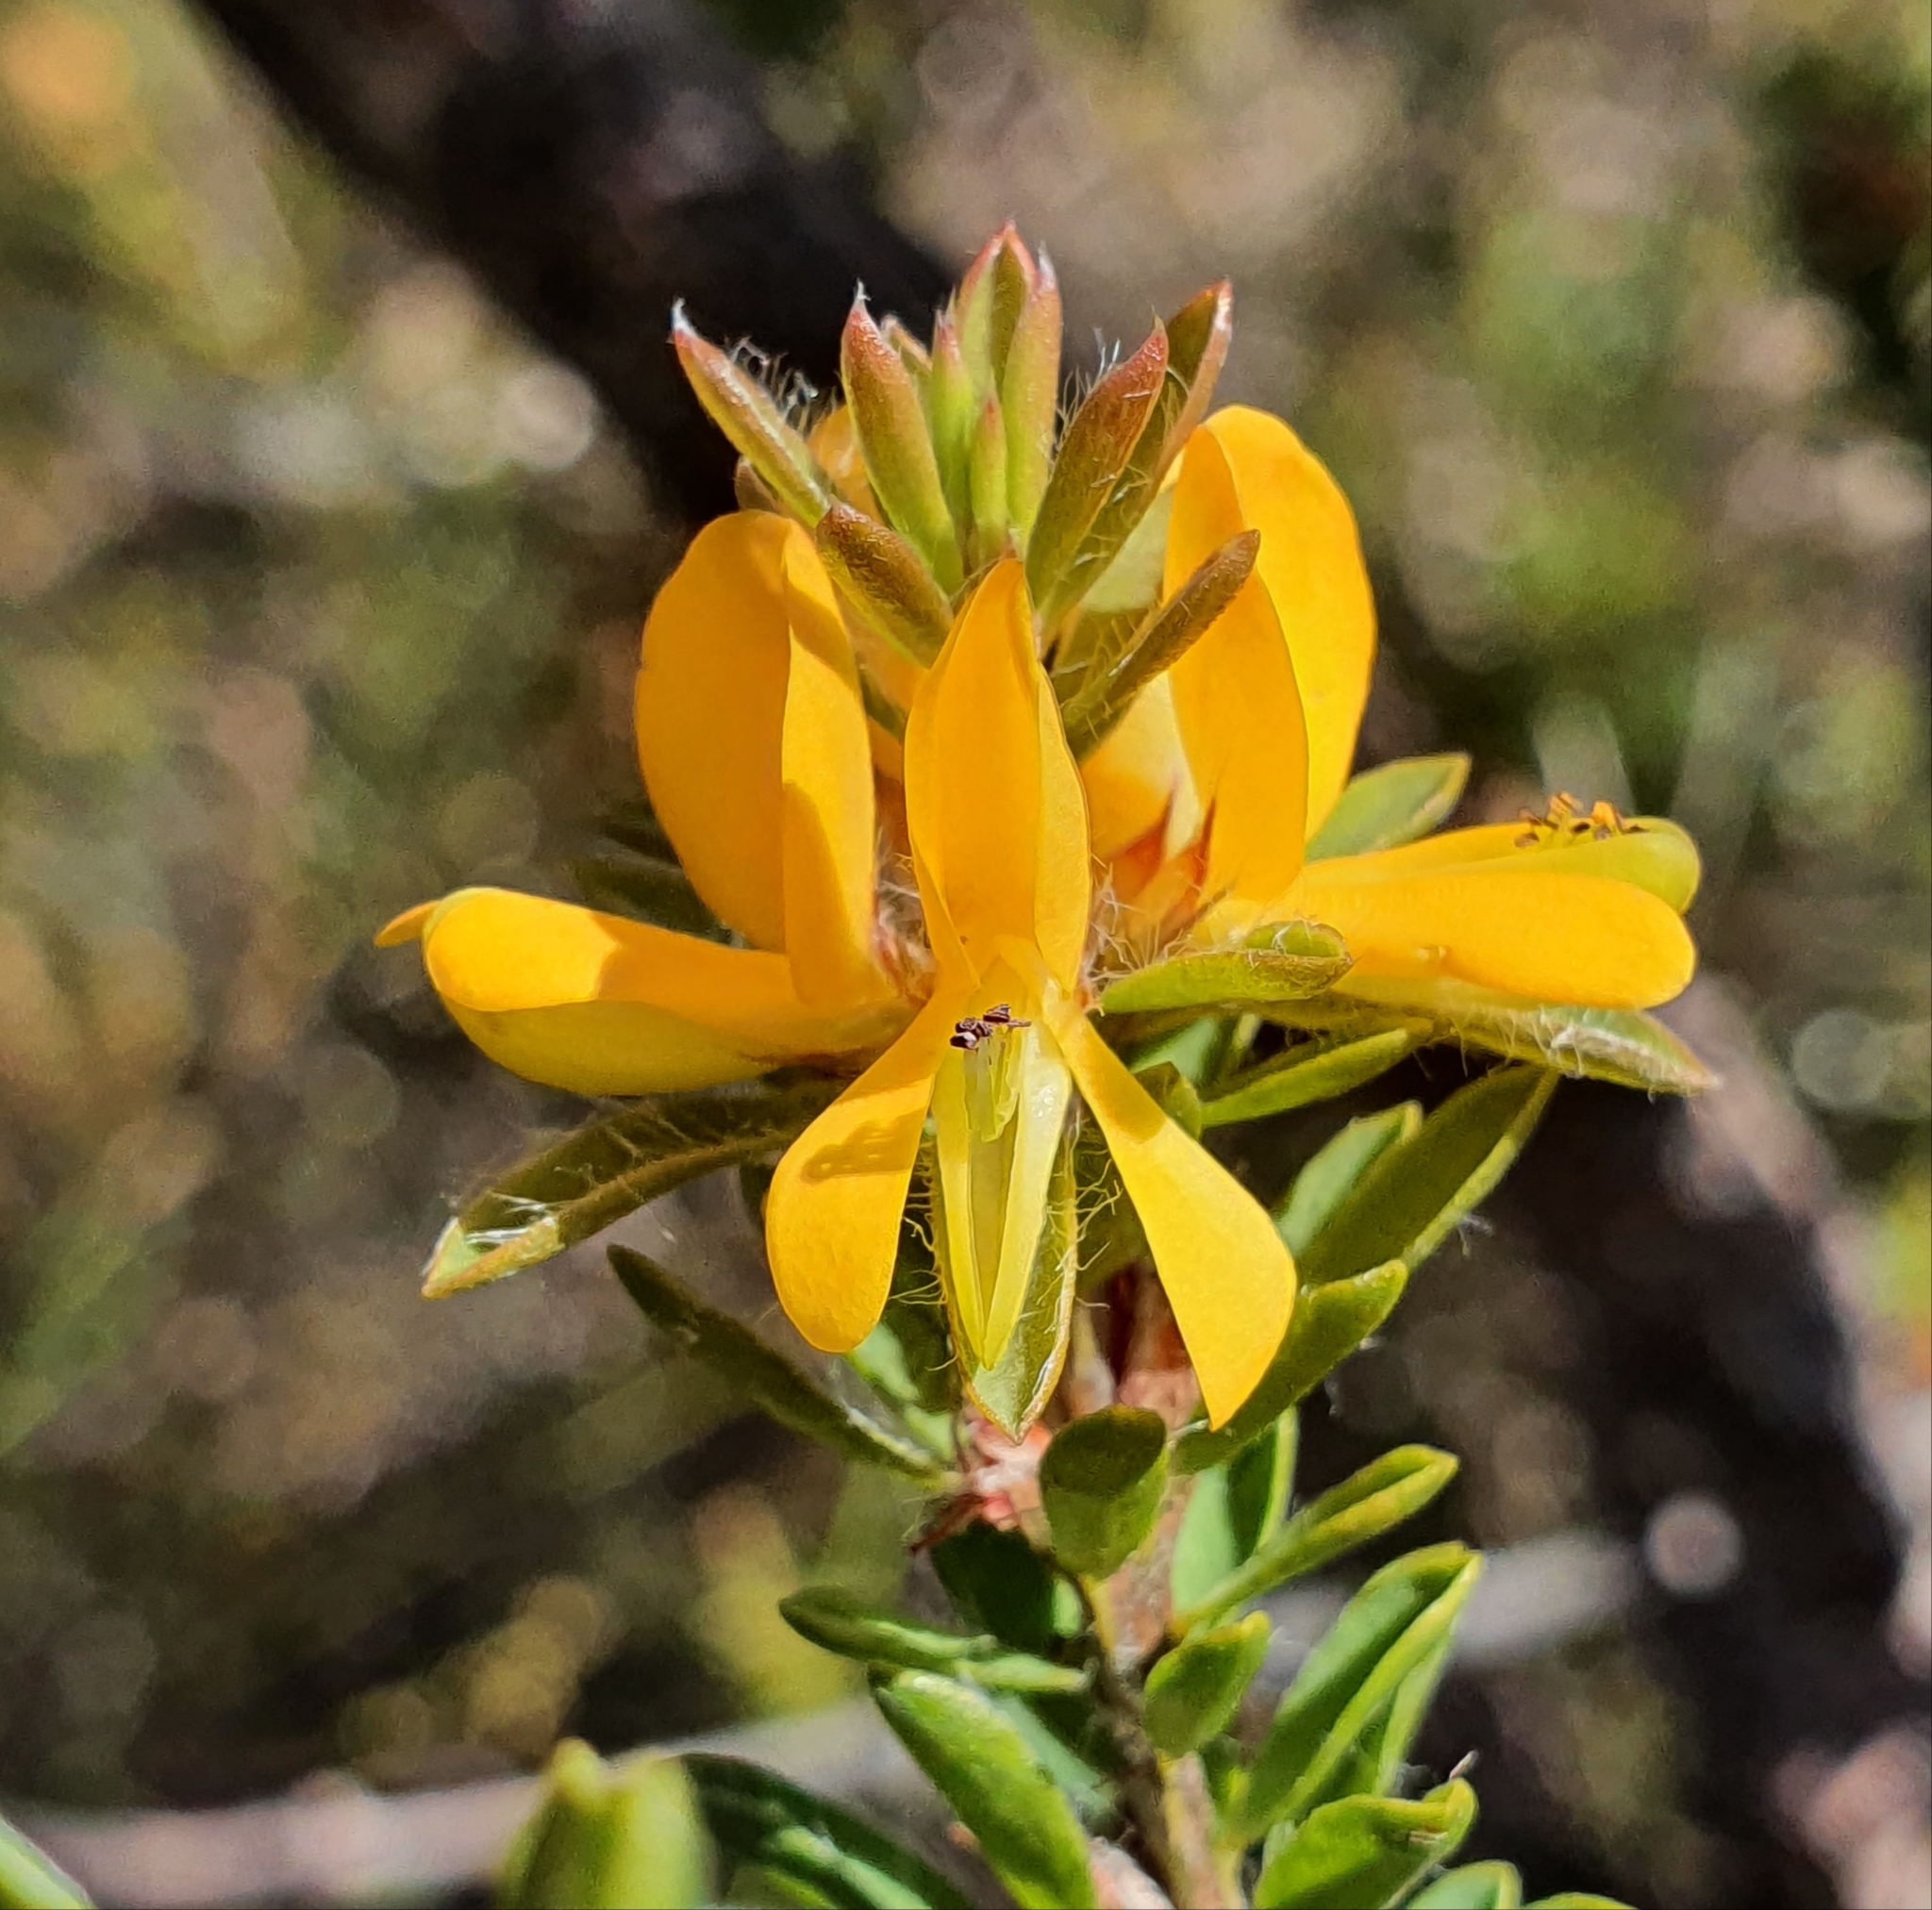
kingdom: Plantae
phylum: Tracheophyta
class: Magnoliopsida
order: Fabales
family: Fabaceae
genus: Pultenaea
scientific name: Pultenaea tuberculata
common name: Wreath bush-pea
